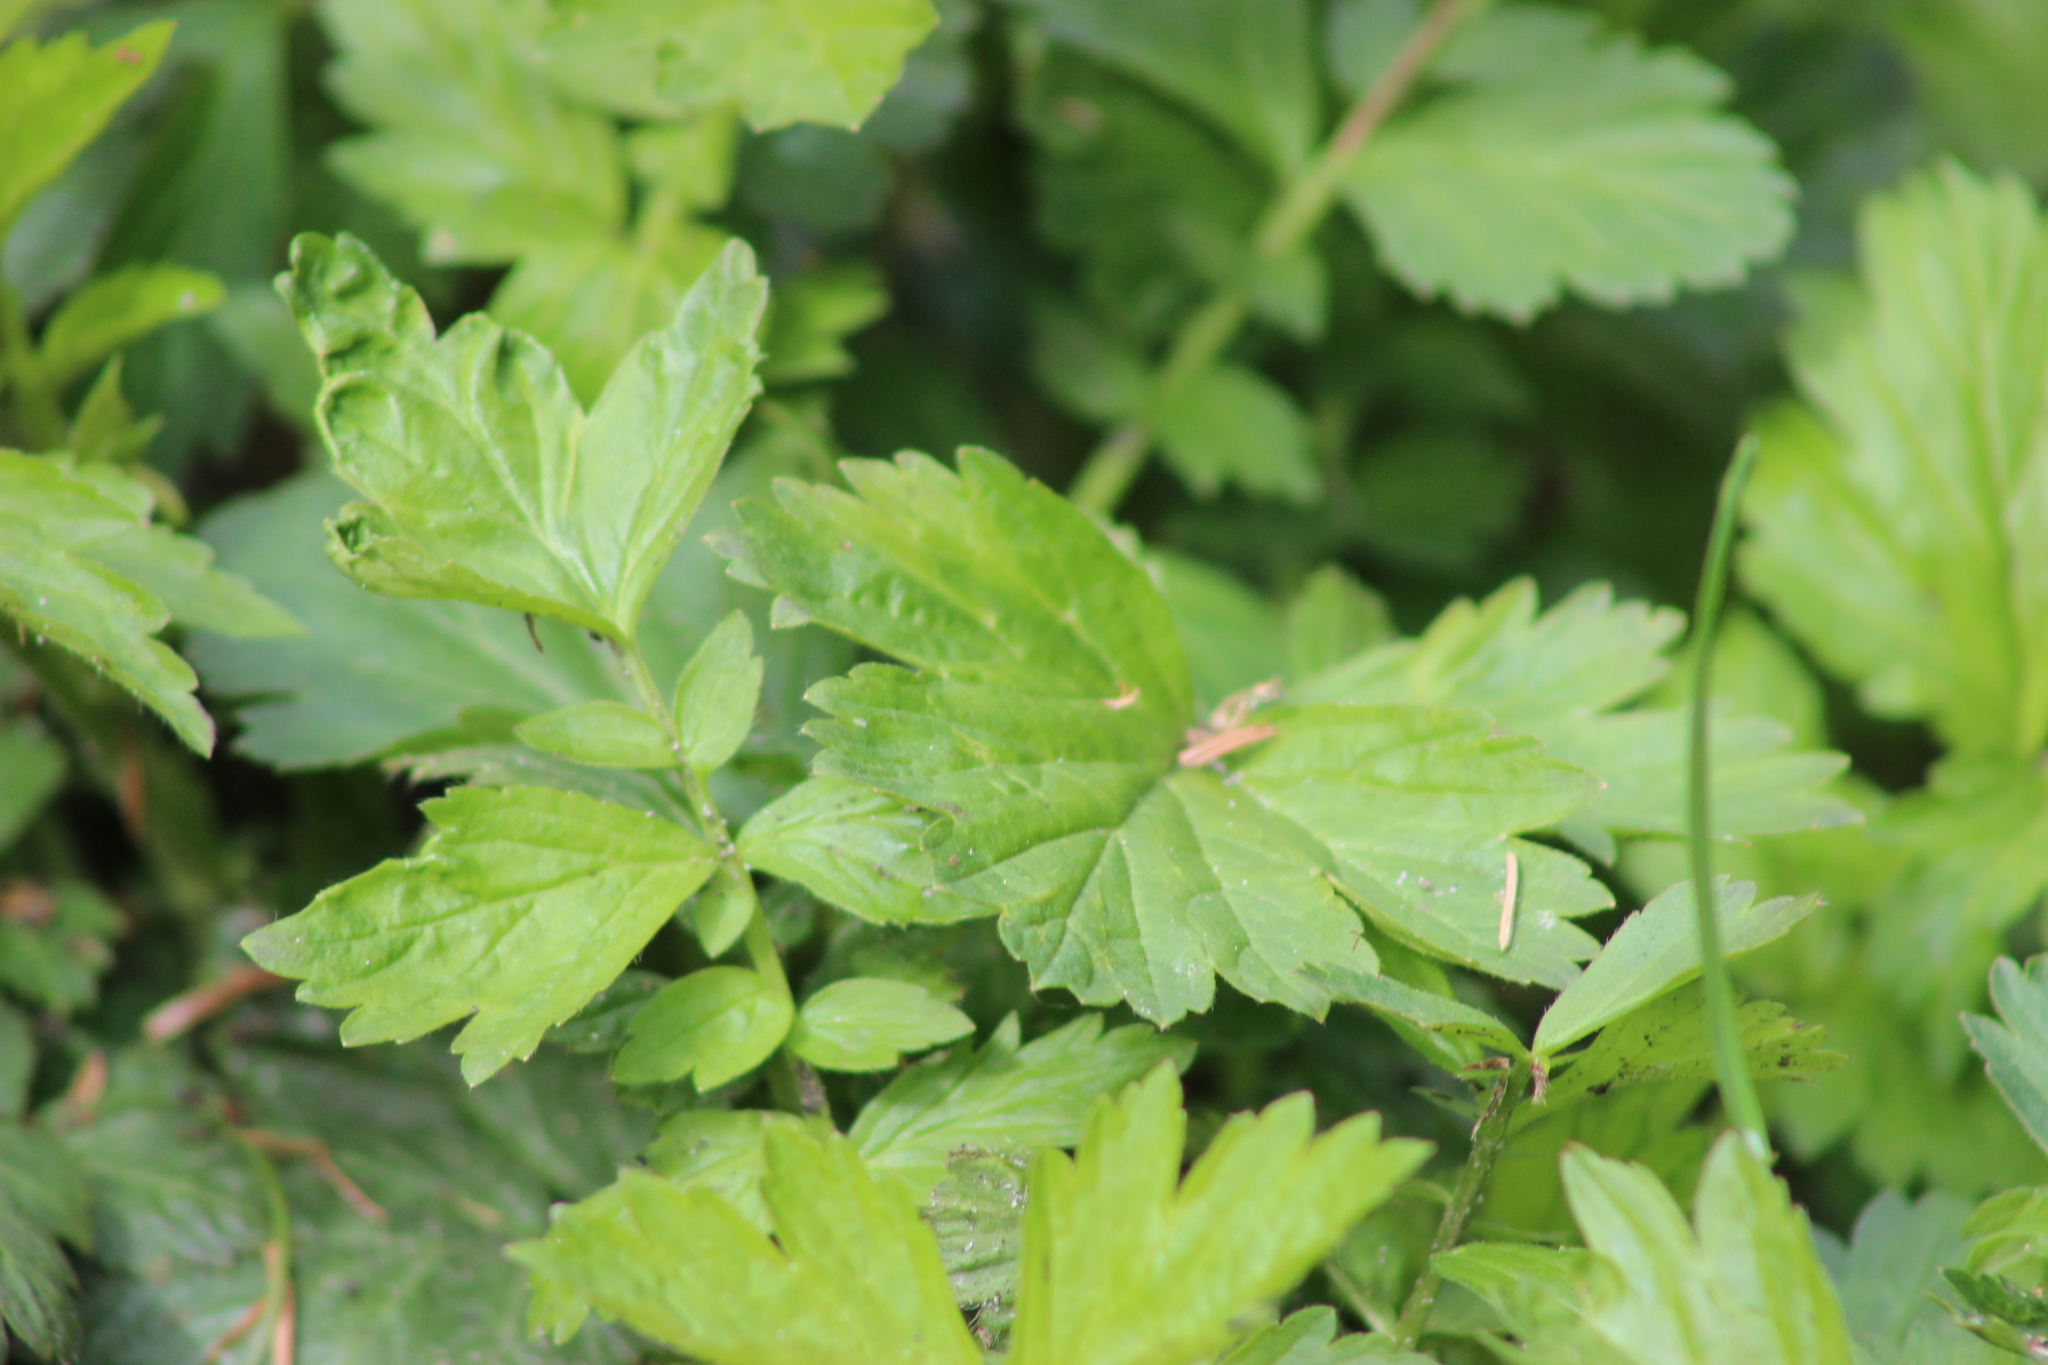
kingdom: Plantae
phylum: Tracheophyta
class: Magnoliopsida
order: Rosales
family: Rosaceae
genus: Geum
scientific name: Geum aleppicum
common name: Yellow avens
